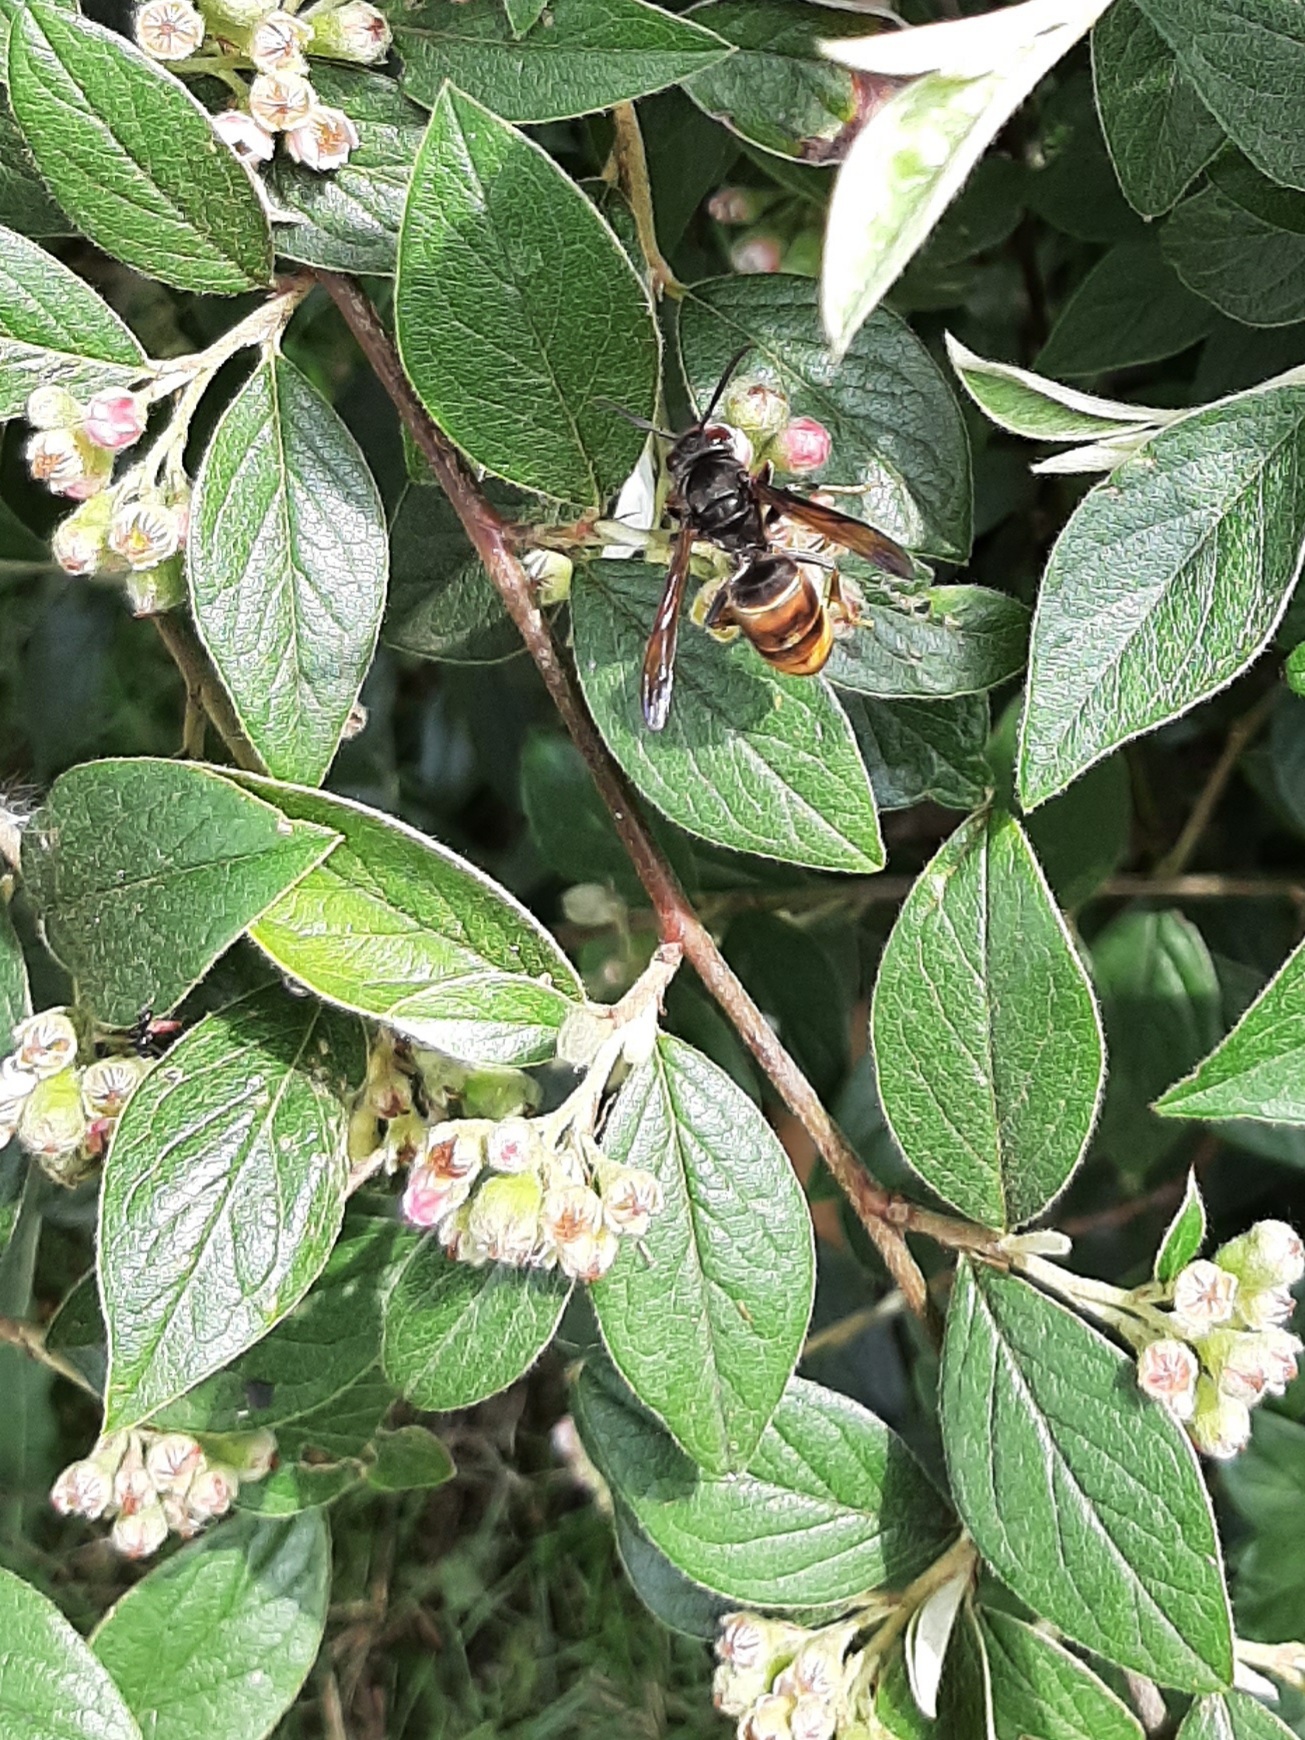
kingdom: Animalia
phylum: Arthropoda
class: Insecta
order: Hymenoptera
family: Vespidae
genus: Vespa
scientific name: Vespa velutina
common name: Asian hornet
